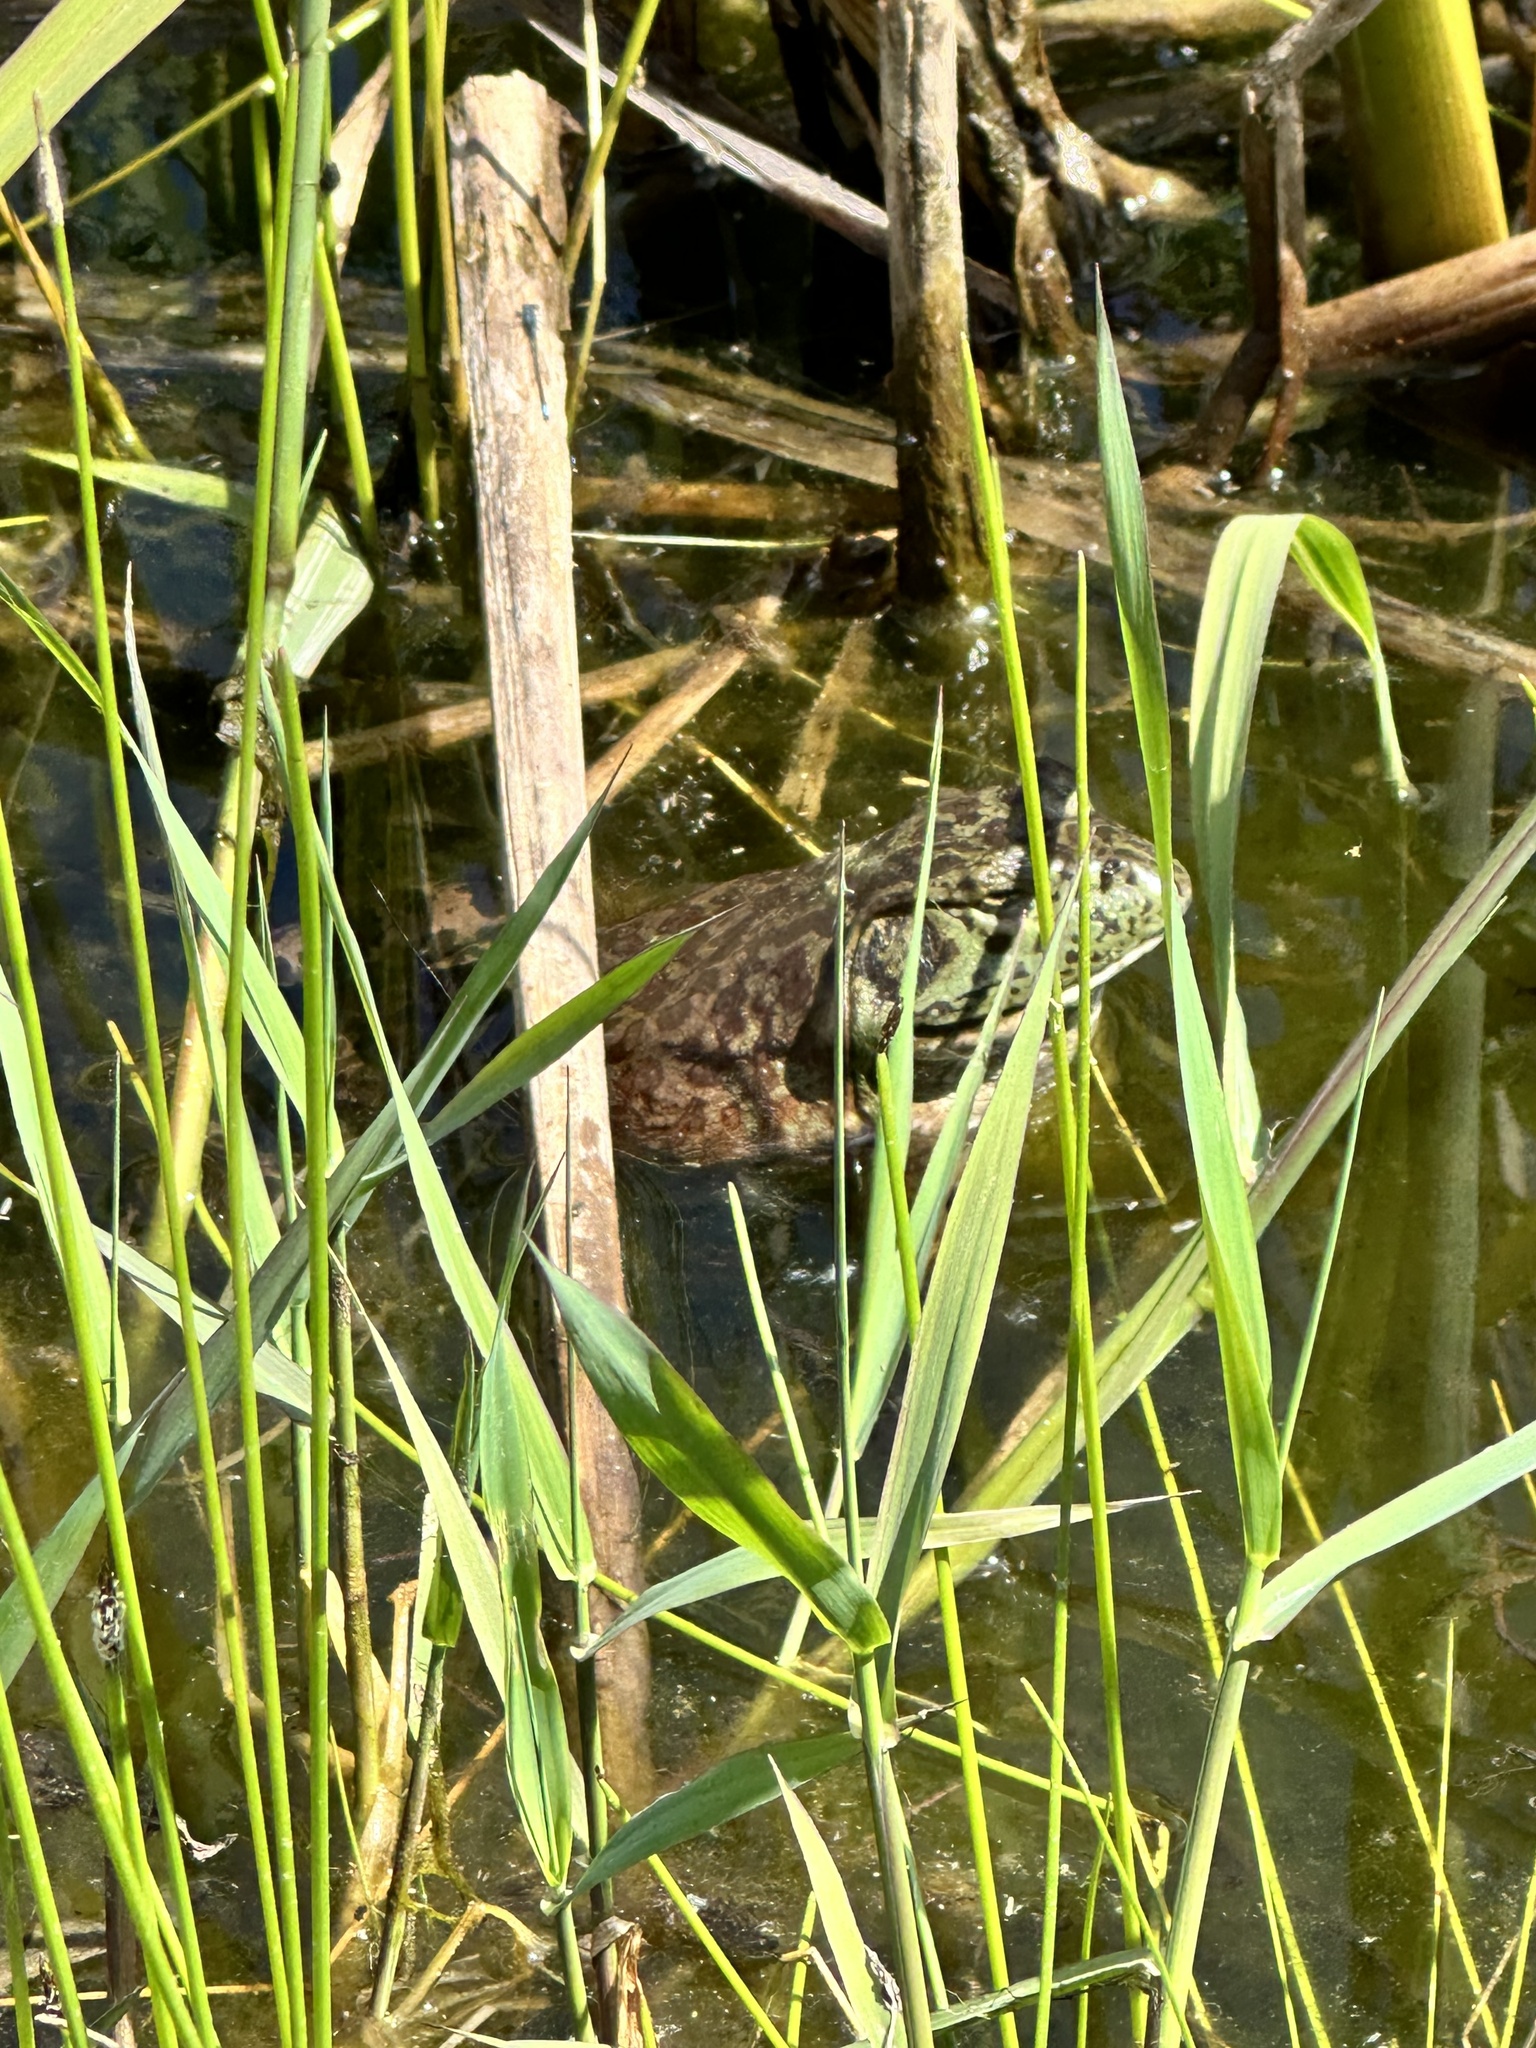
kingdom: Animalia
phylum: Chordata
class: Amphibia
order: Anura
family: Ranidae
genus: Lithobates
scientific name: Lithobates catesbeianus
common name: American bullfrog
